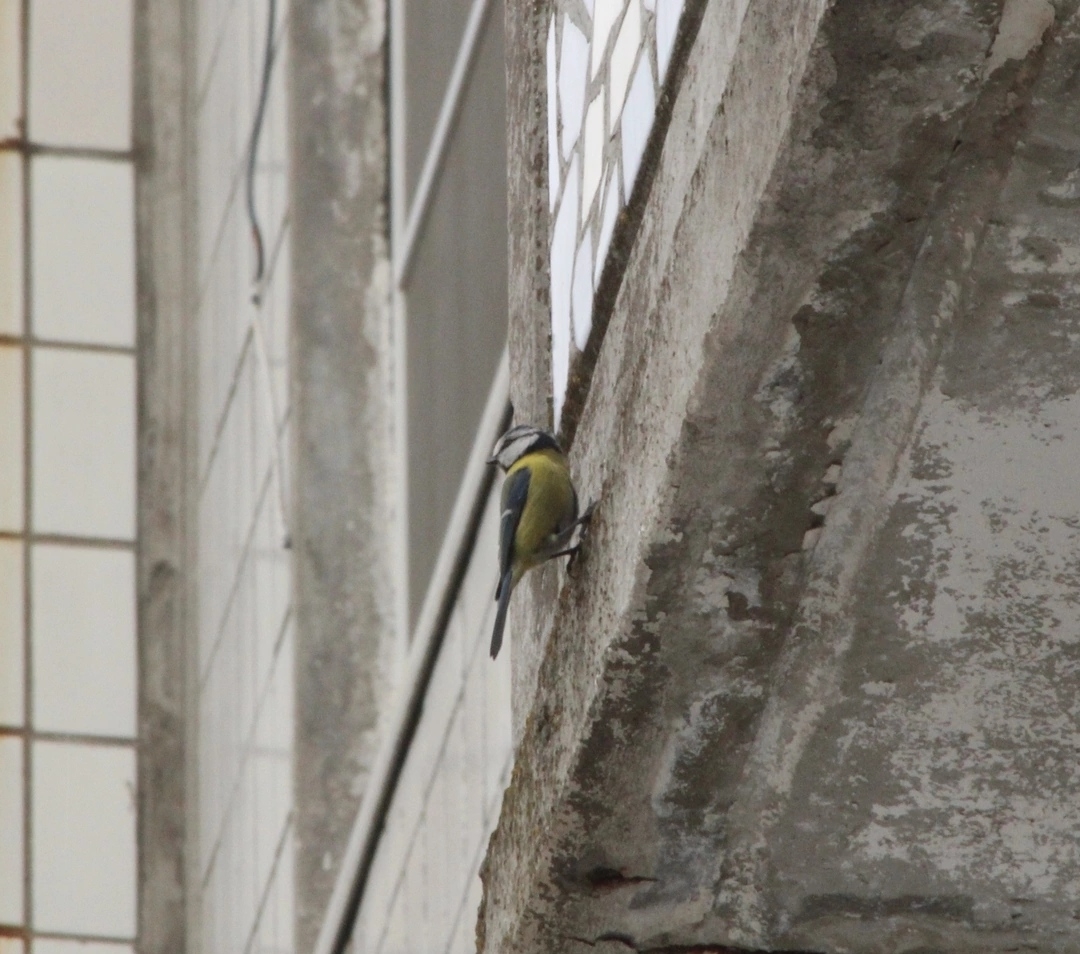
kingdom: Animalia
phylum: Chordata
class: Aves
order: Passeriformes
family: Paridae
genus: Cyanistes
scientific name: Cyanistes caeruleus
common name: Eurasian blue tit
